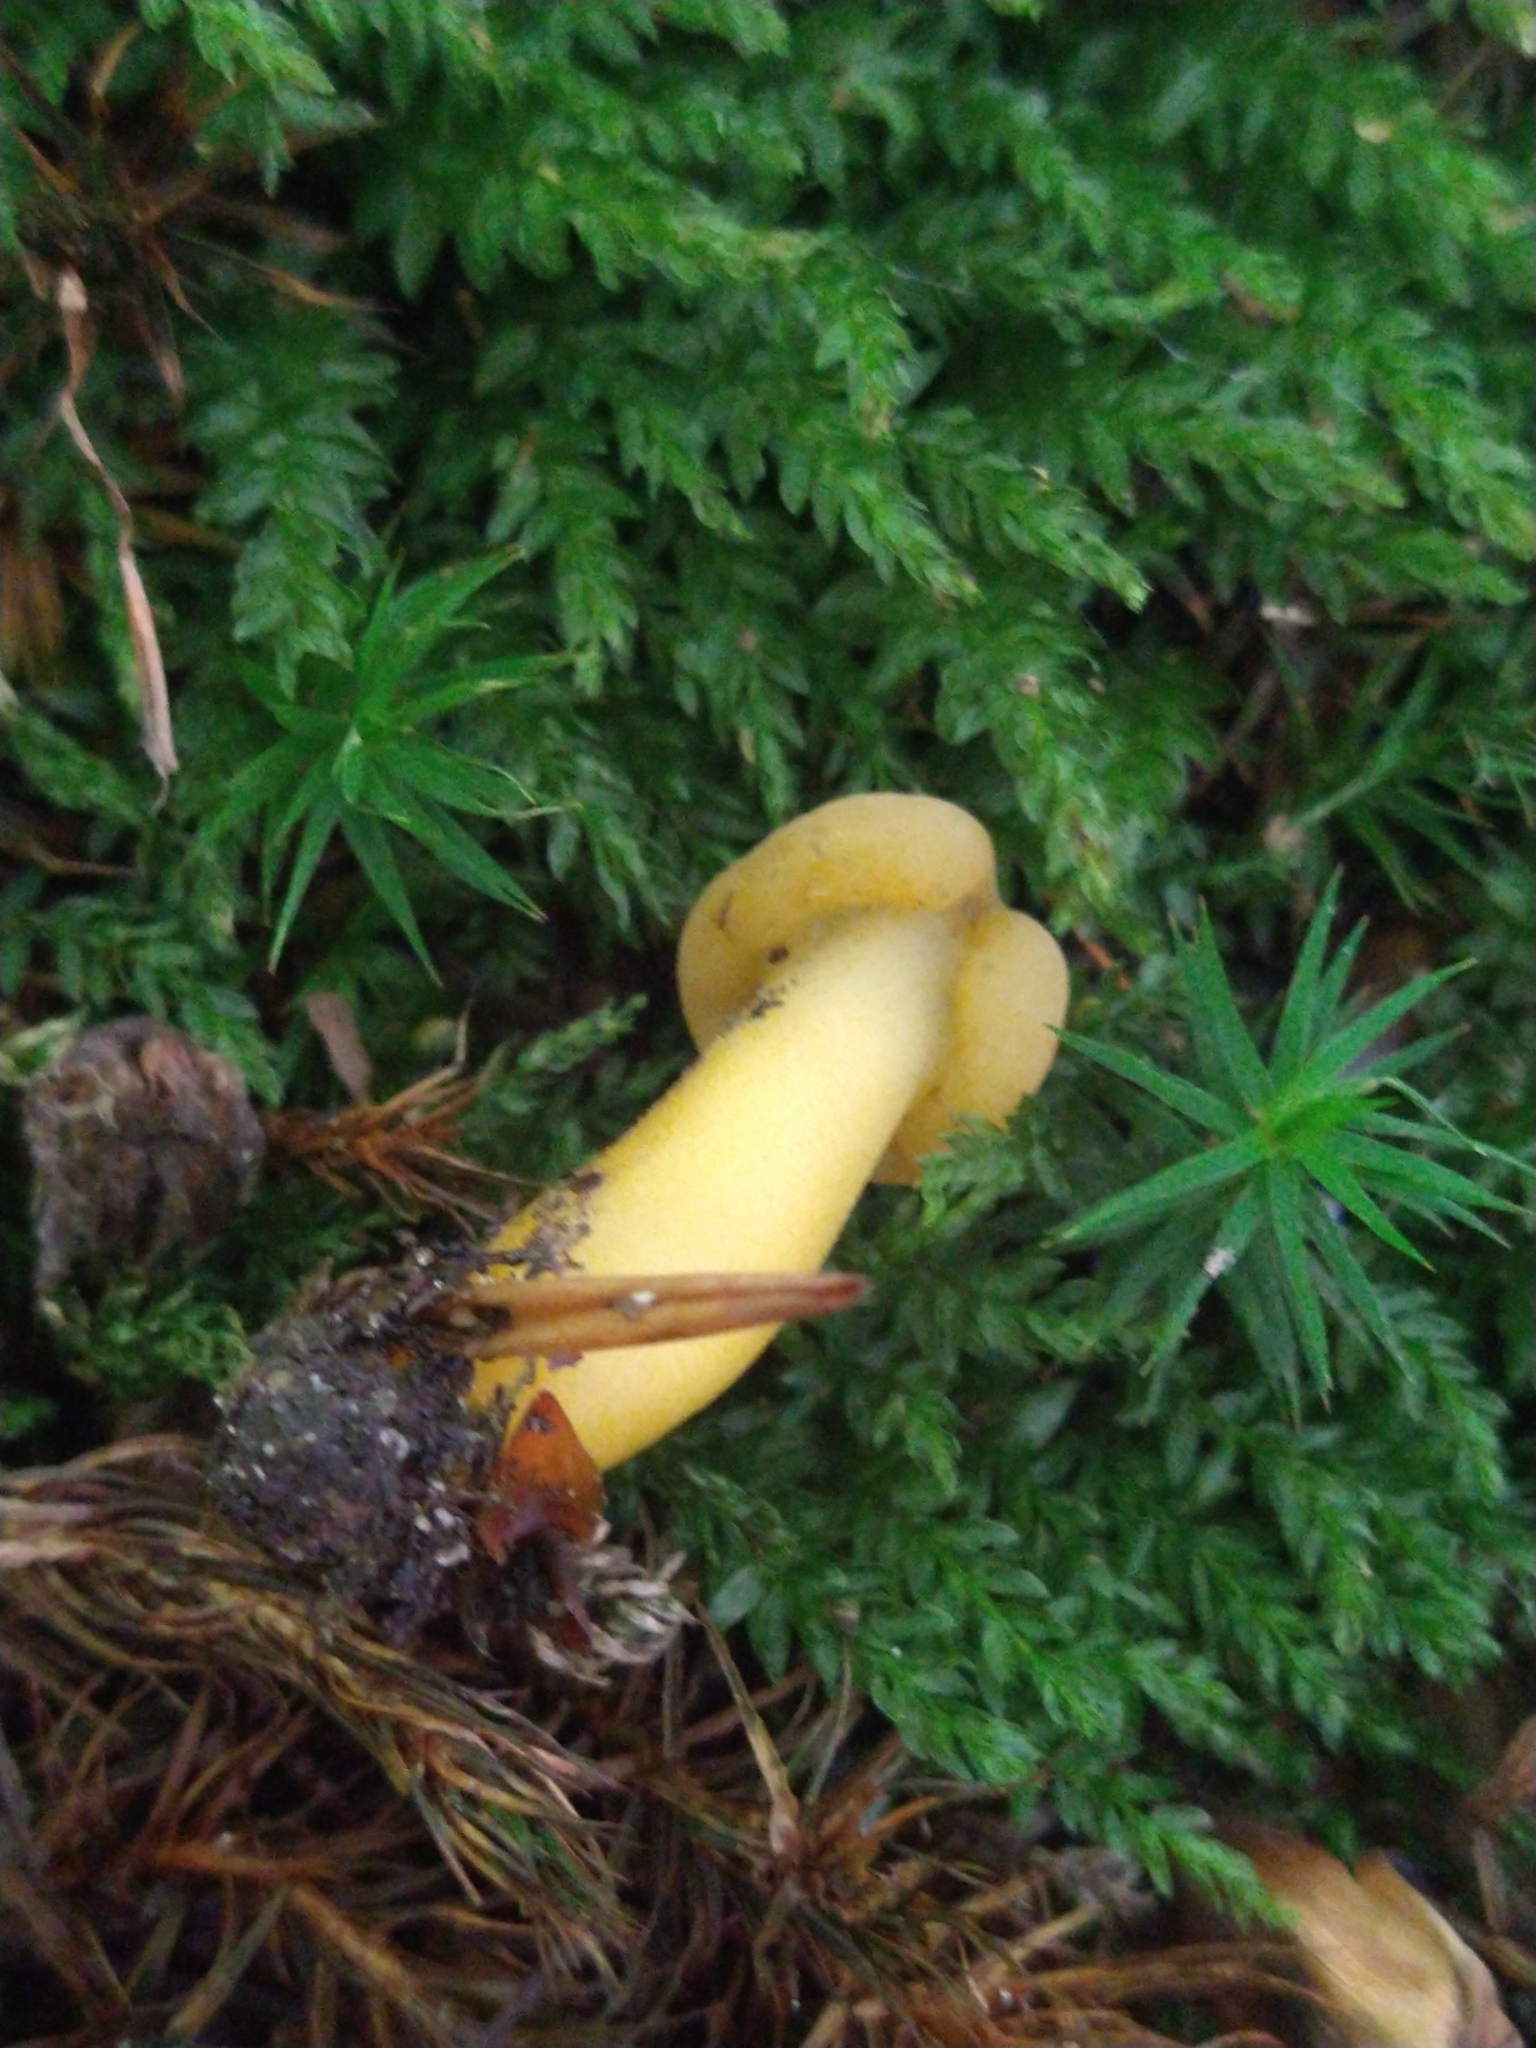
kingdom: Fungi
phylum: Ascomycota
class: Leotiomycetes
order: Leotiales
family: Leotiaceae
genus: Leotia
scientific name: Leotia lubrica
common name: Jellybaby
